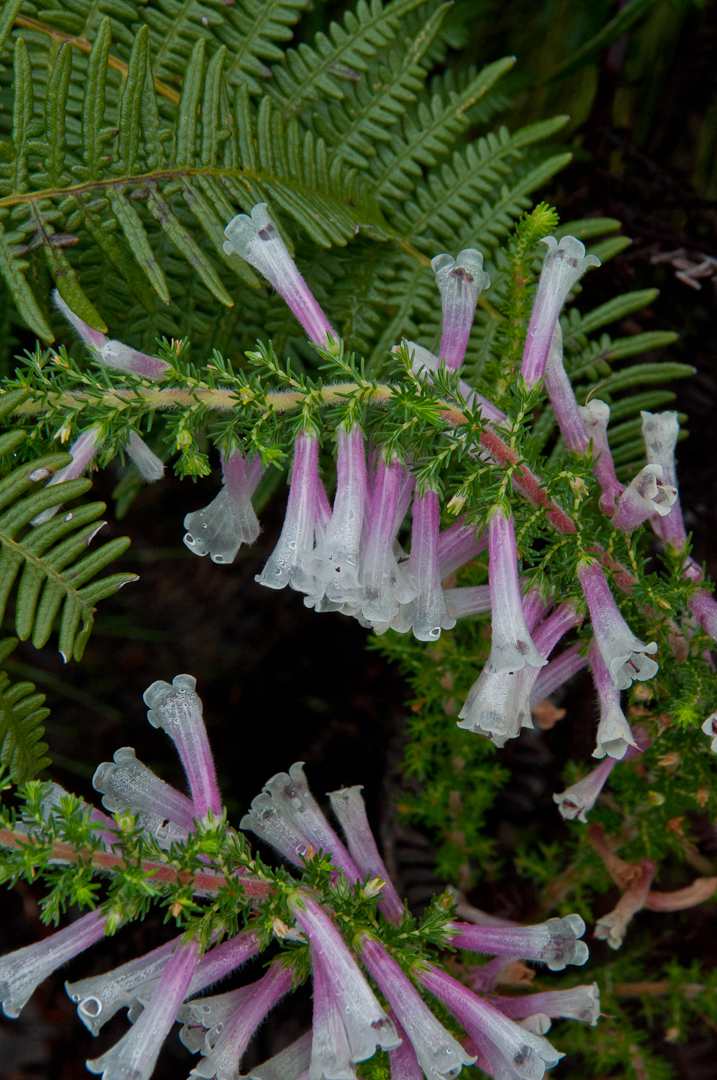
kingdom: Plantae
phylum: Tracheophyta
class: Magnoliopsida
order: Ericales
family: Ericaceae
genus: Erica
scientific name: Erica perspicua
